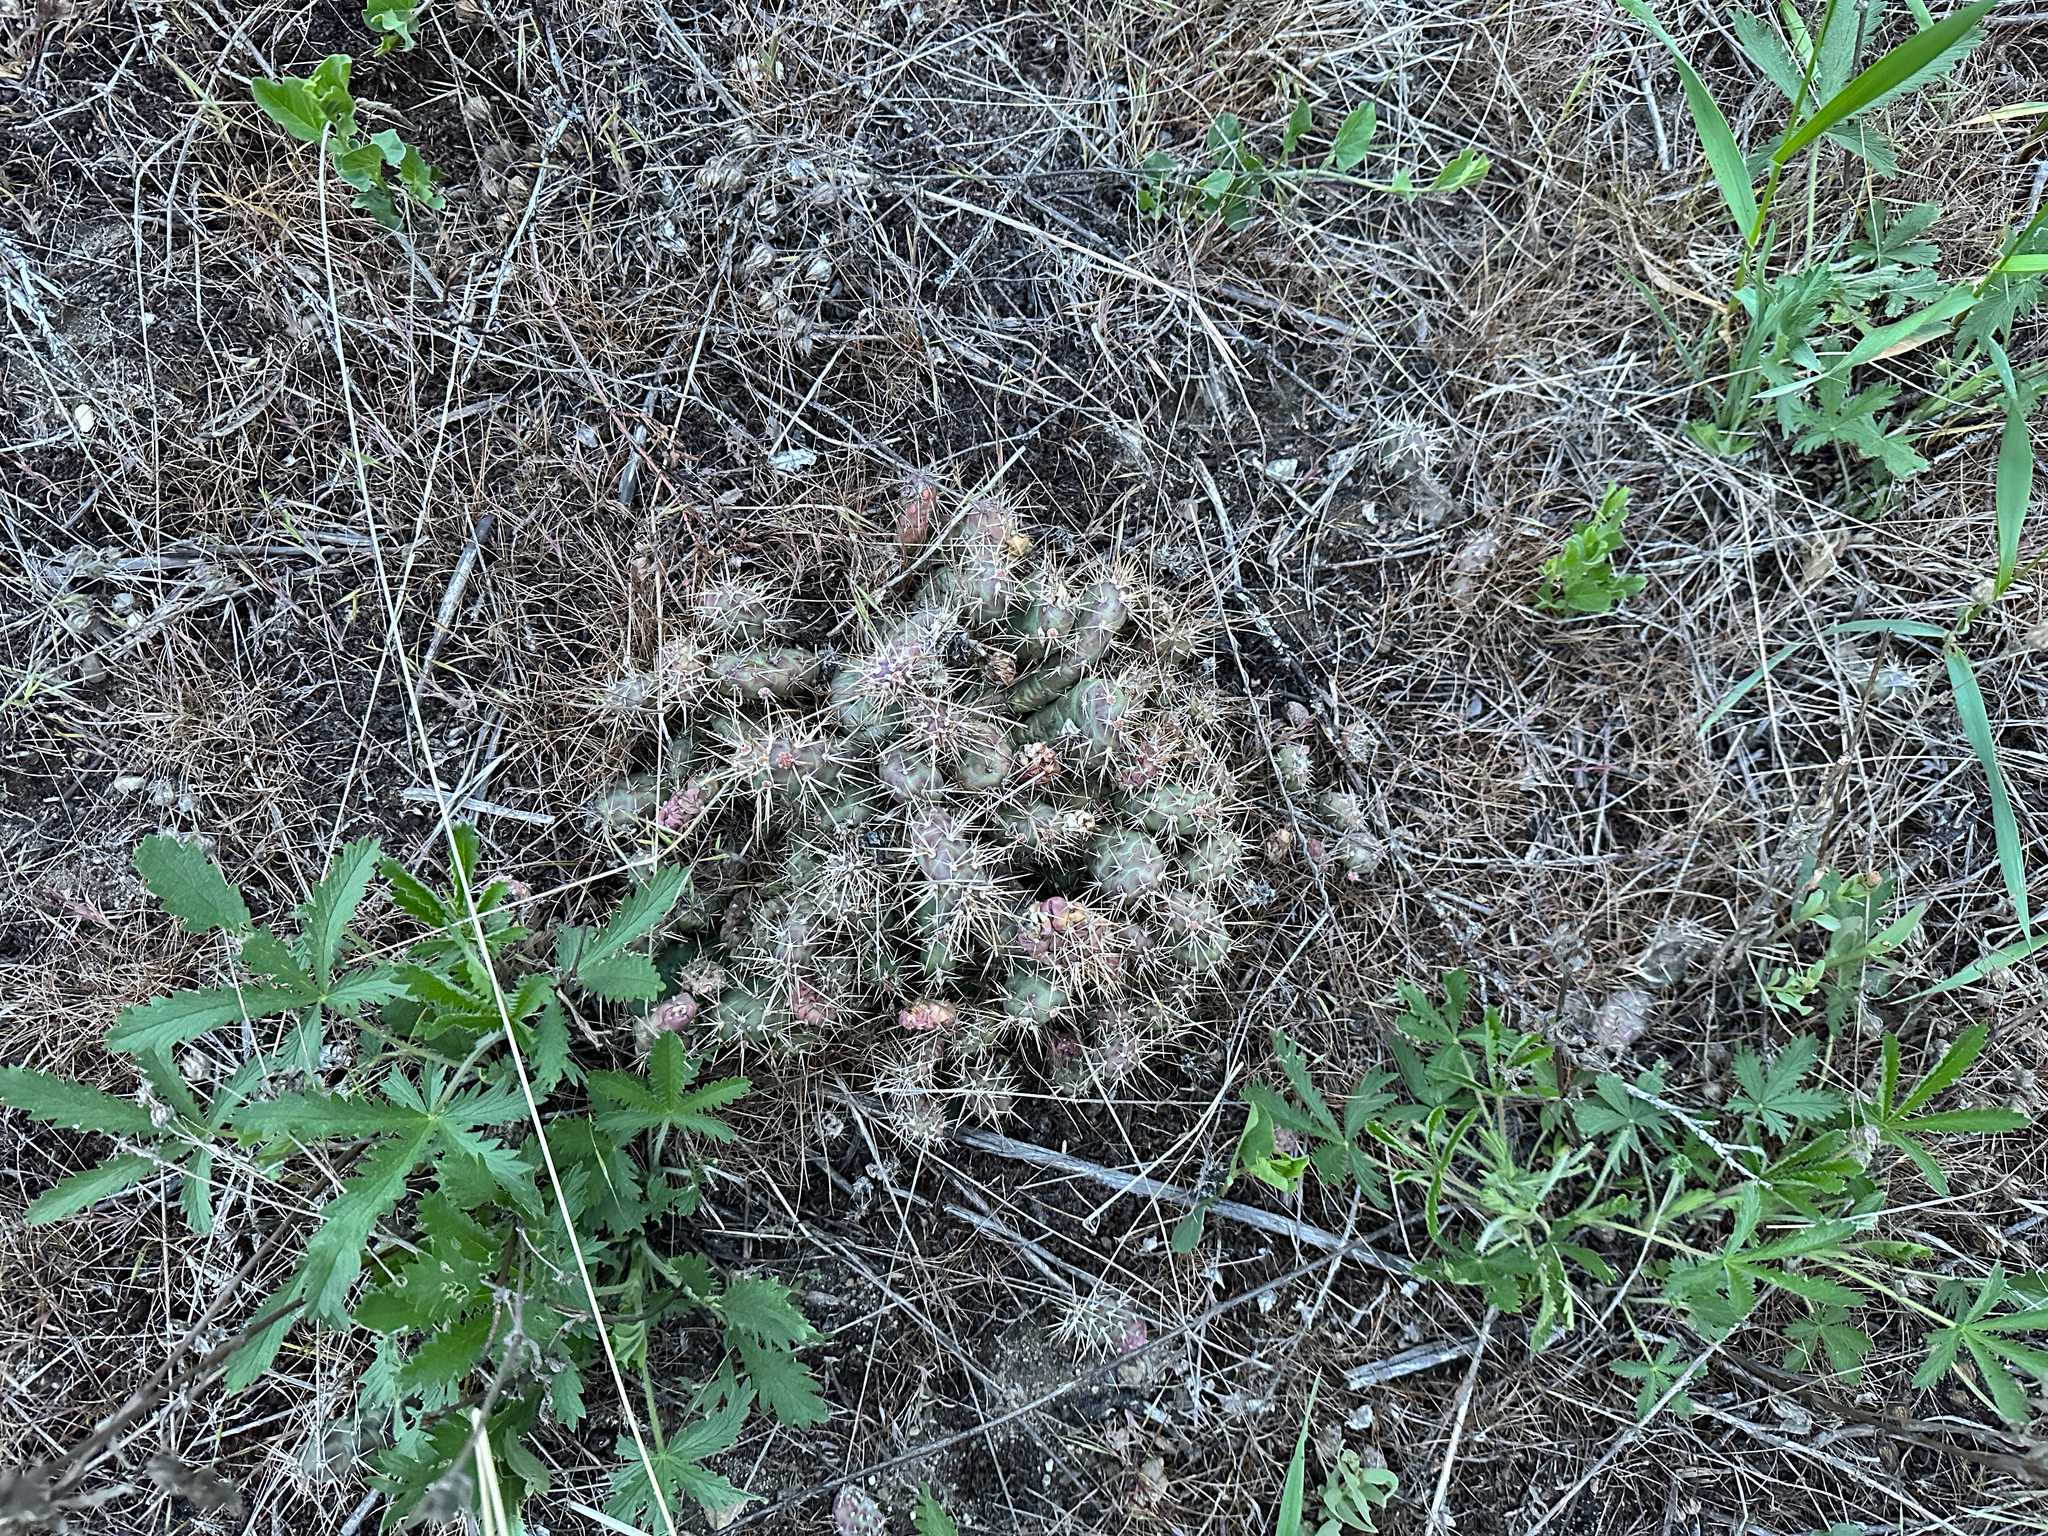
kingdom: Plantae
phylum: Tracheophyta
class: Magnoliopsida
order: Caryophyllales
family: Cactaceae
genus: Opuntia
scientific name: Opuntia fragilis
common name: Brittle cactus
